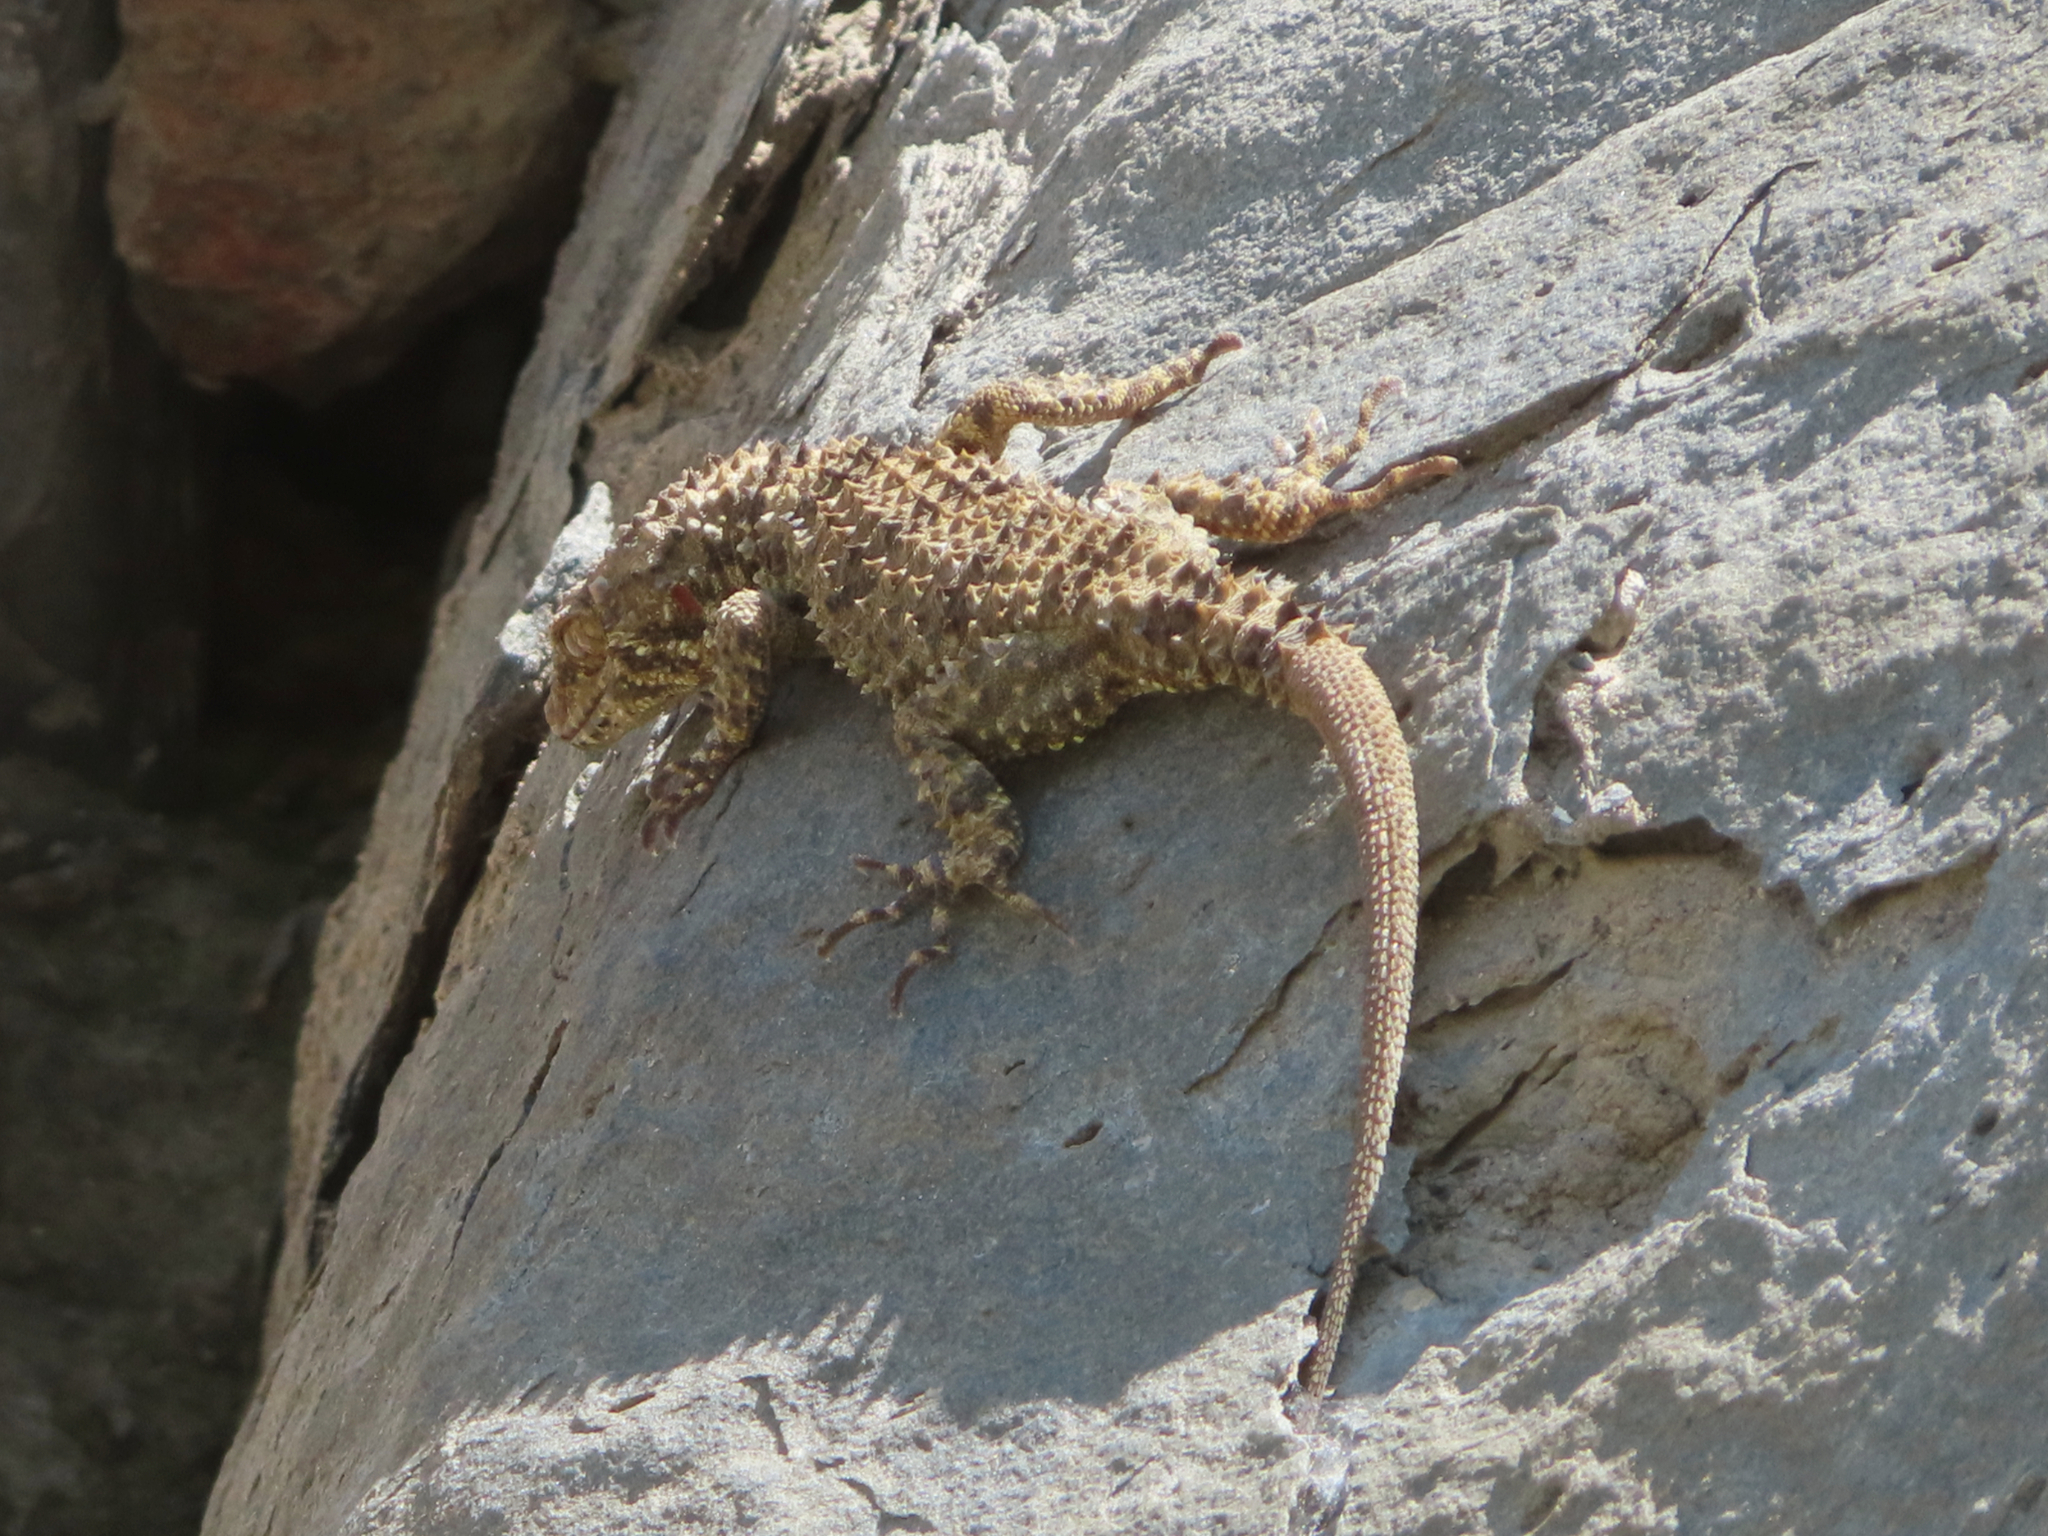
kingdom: Animalia
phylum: Chordata
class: Squamata
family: Gekkonidae
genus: Tenuidactylus
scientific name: Tenuidactylus caspius
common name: Caspian bent-toed gecko
